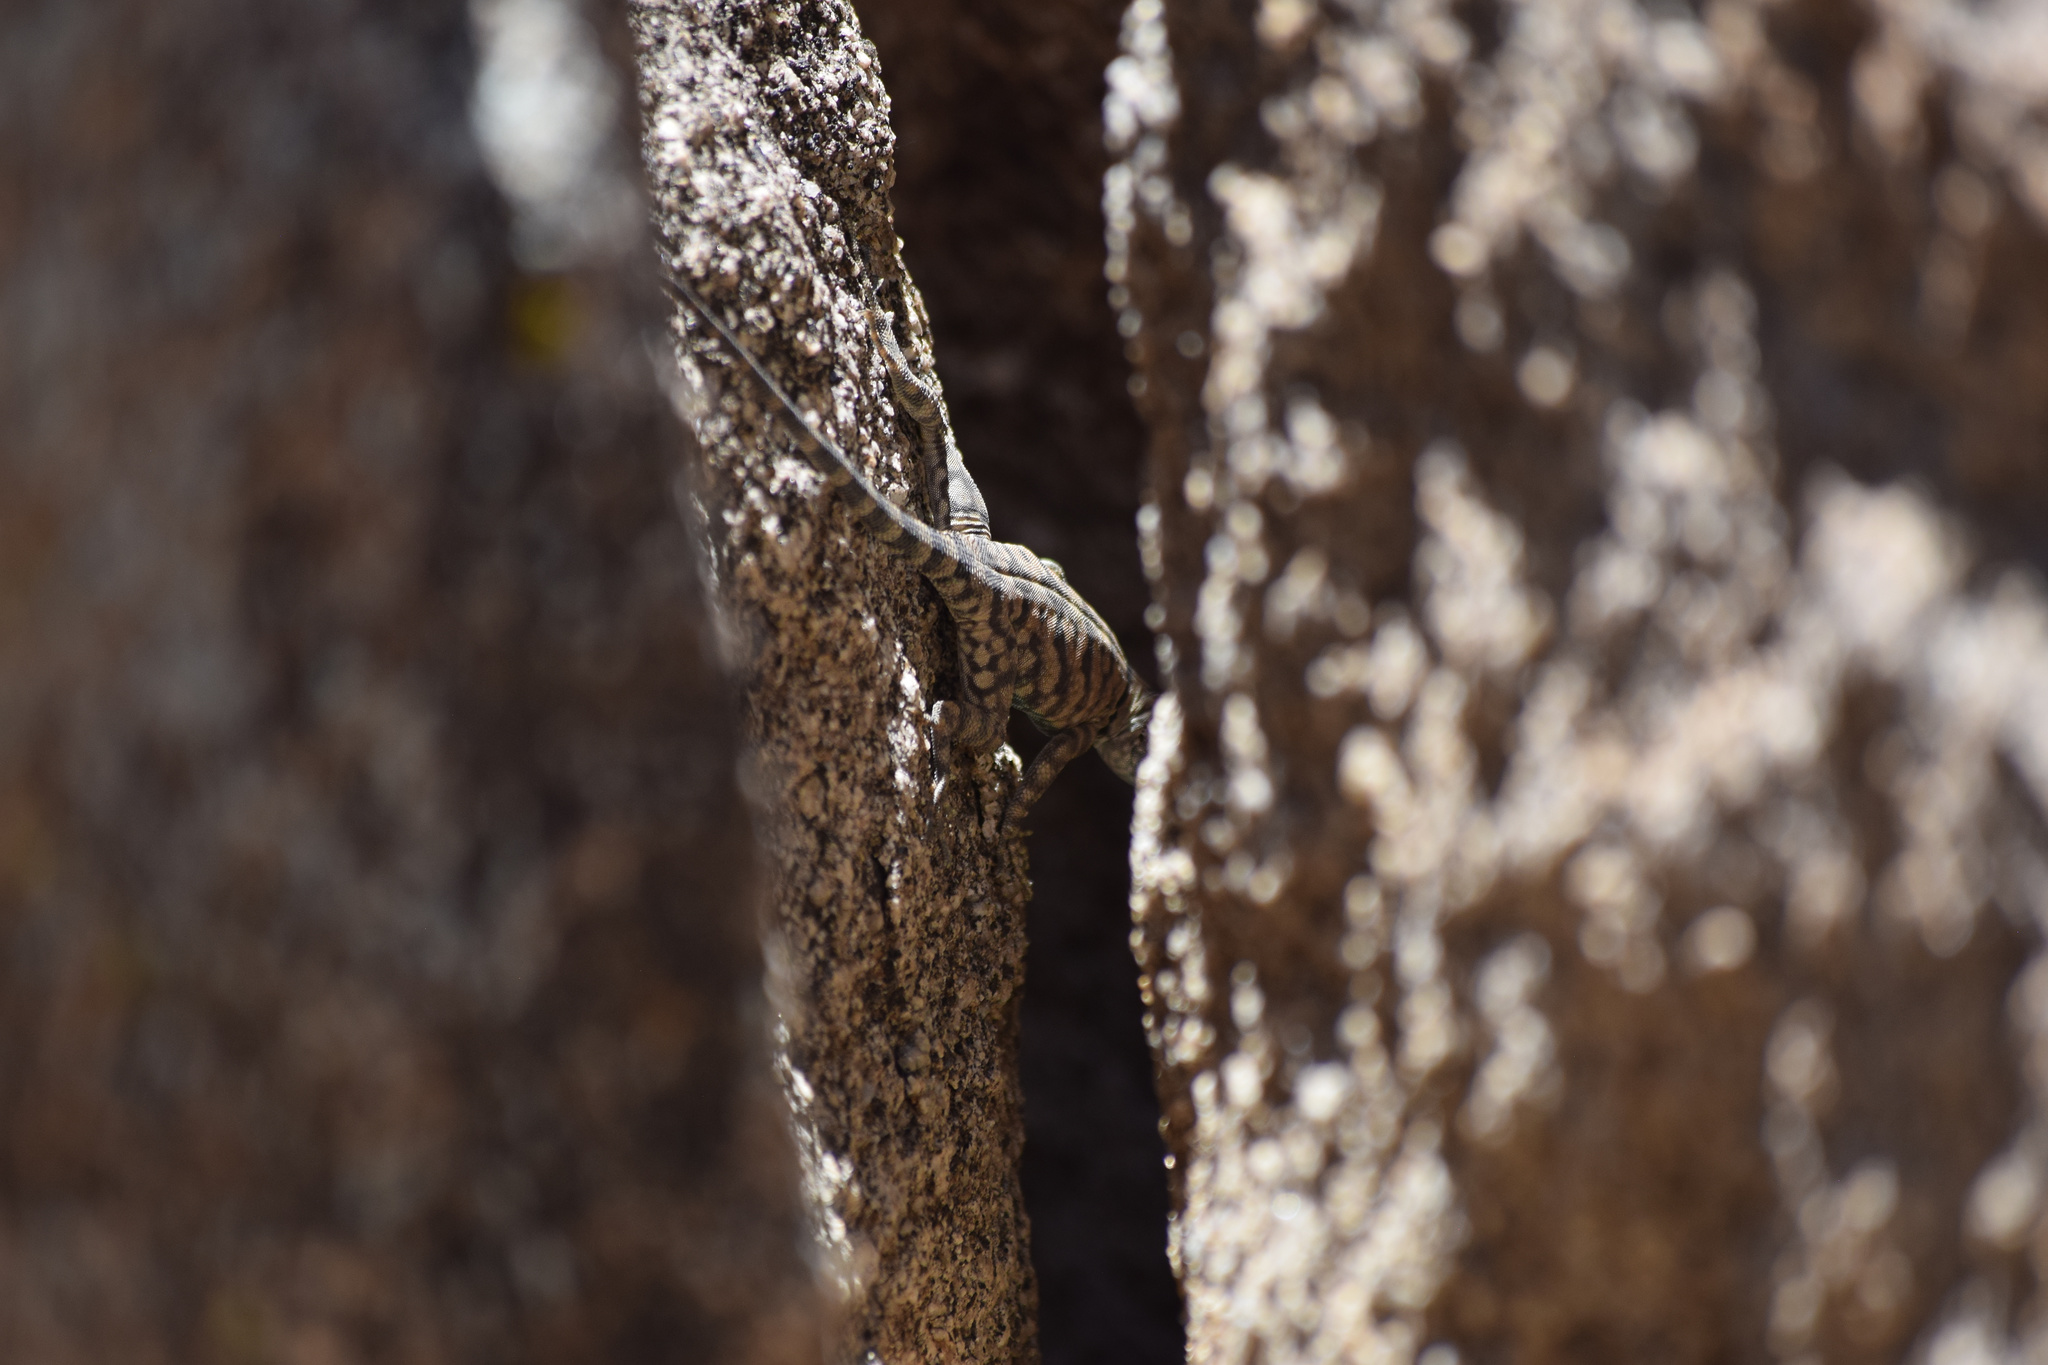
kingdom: Animalia
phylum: Chordata
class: Squamata
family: Phrynosomatidae
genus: Petrosaurus
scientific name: Petrosaurus mearnsi
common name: Banded rock lizard
